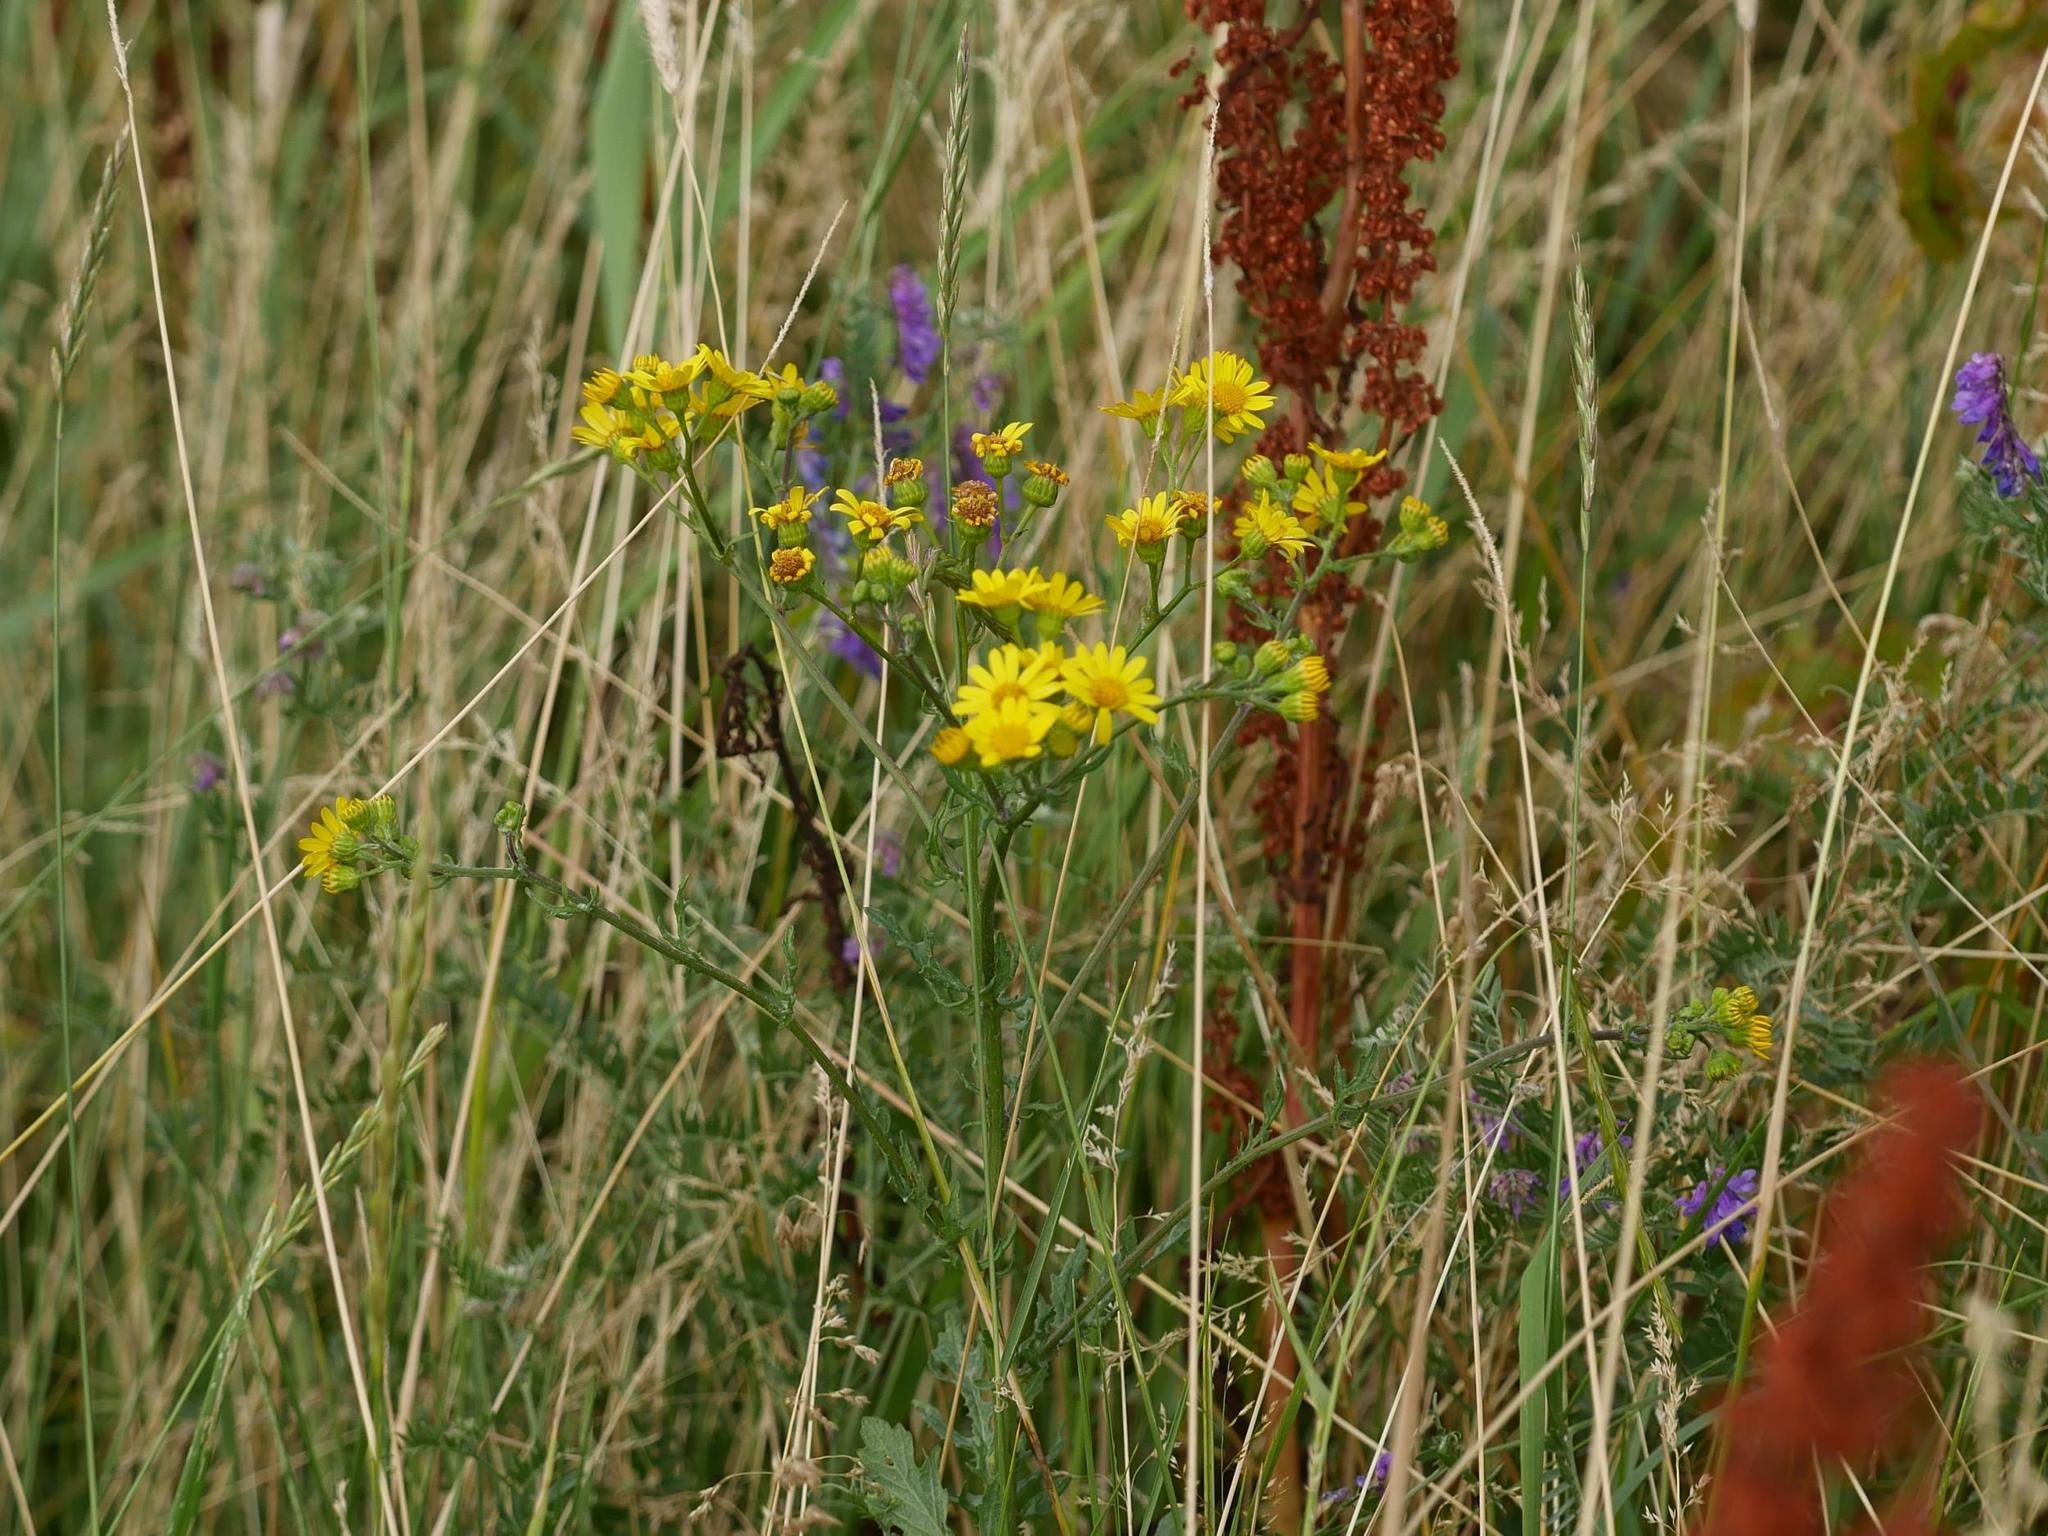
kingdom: Plantae
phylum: Tracheophyta
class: Magnoliopsida
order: Asterales
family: Asteraceae
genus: Jacobaea
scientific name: Jacobaea vulgaris
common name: Stinking willie
